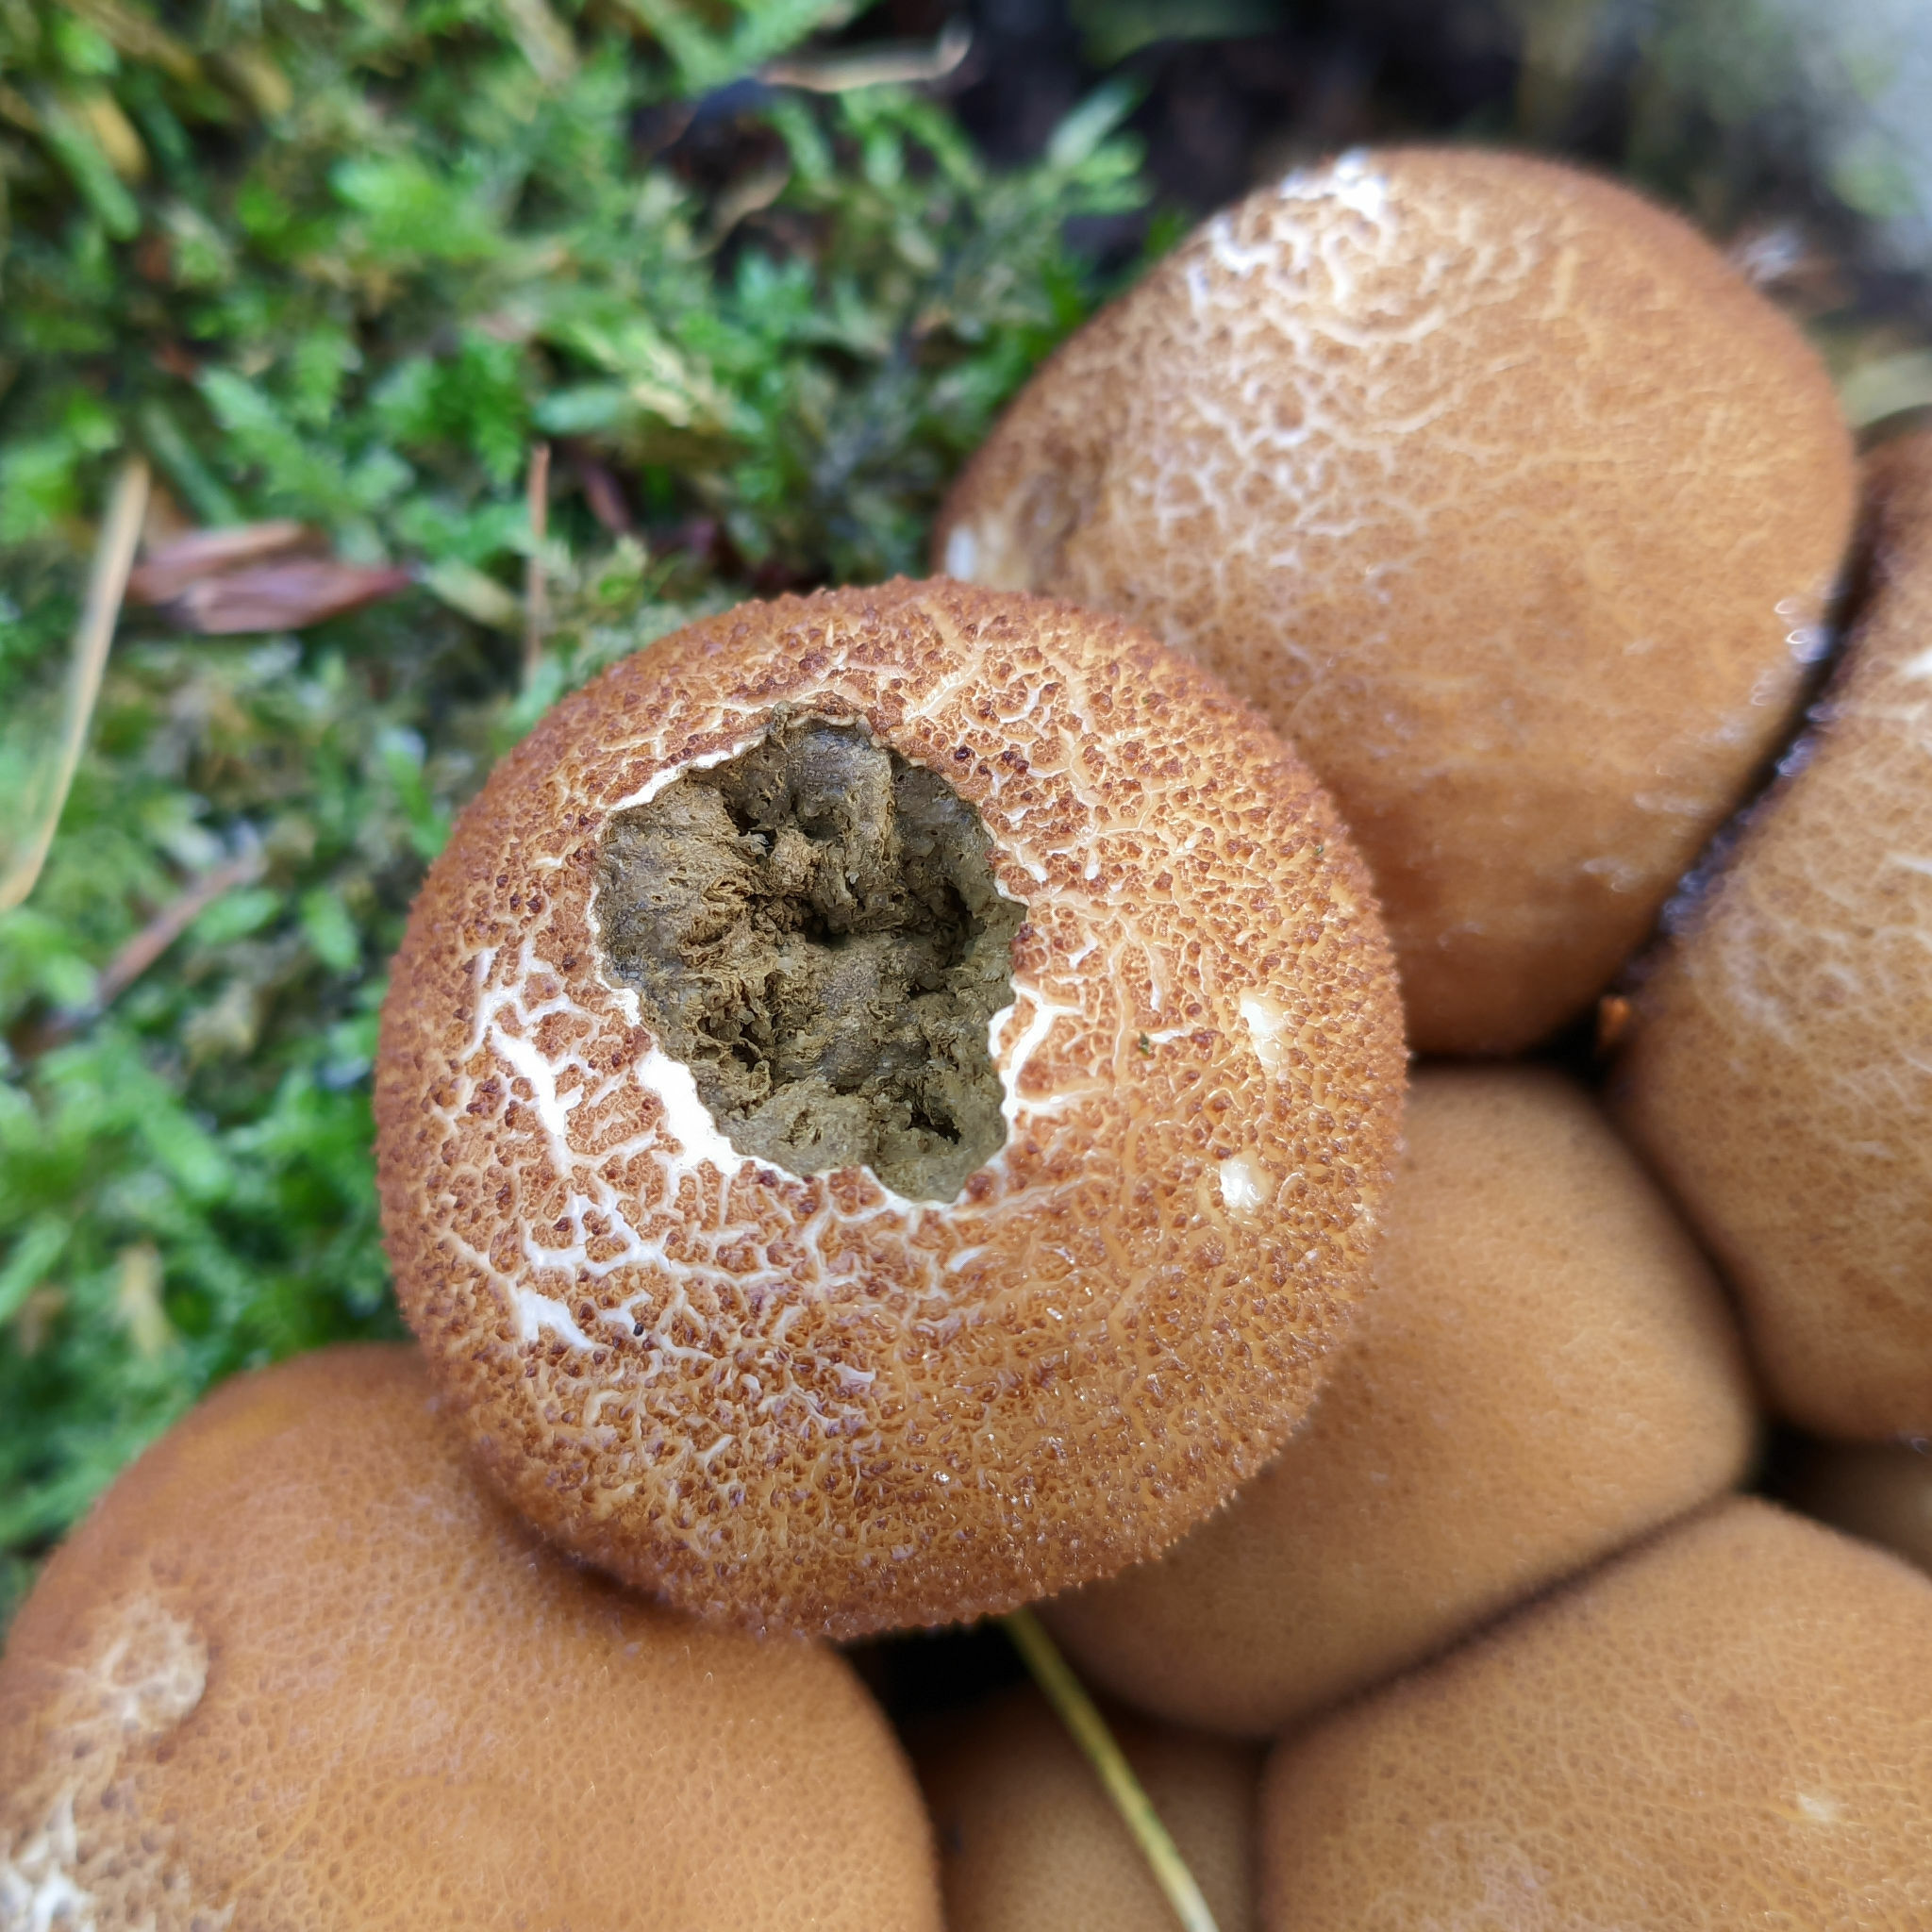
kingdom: Fungi
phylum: Basidiomycota
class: Agaricomycetes
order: Agaricales
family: Lycoperdaceae
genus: Apioperdon
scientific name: Apioperdon pyriforme
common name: Pear-shaped puffball
